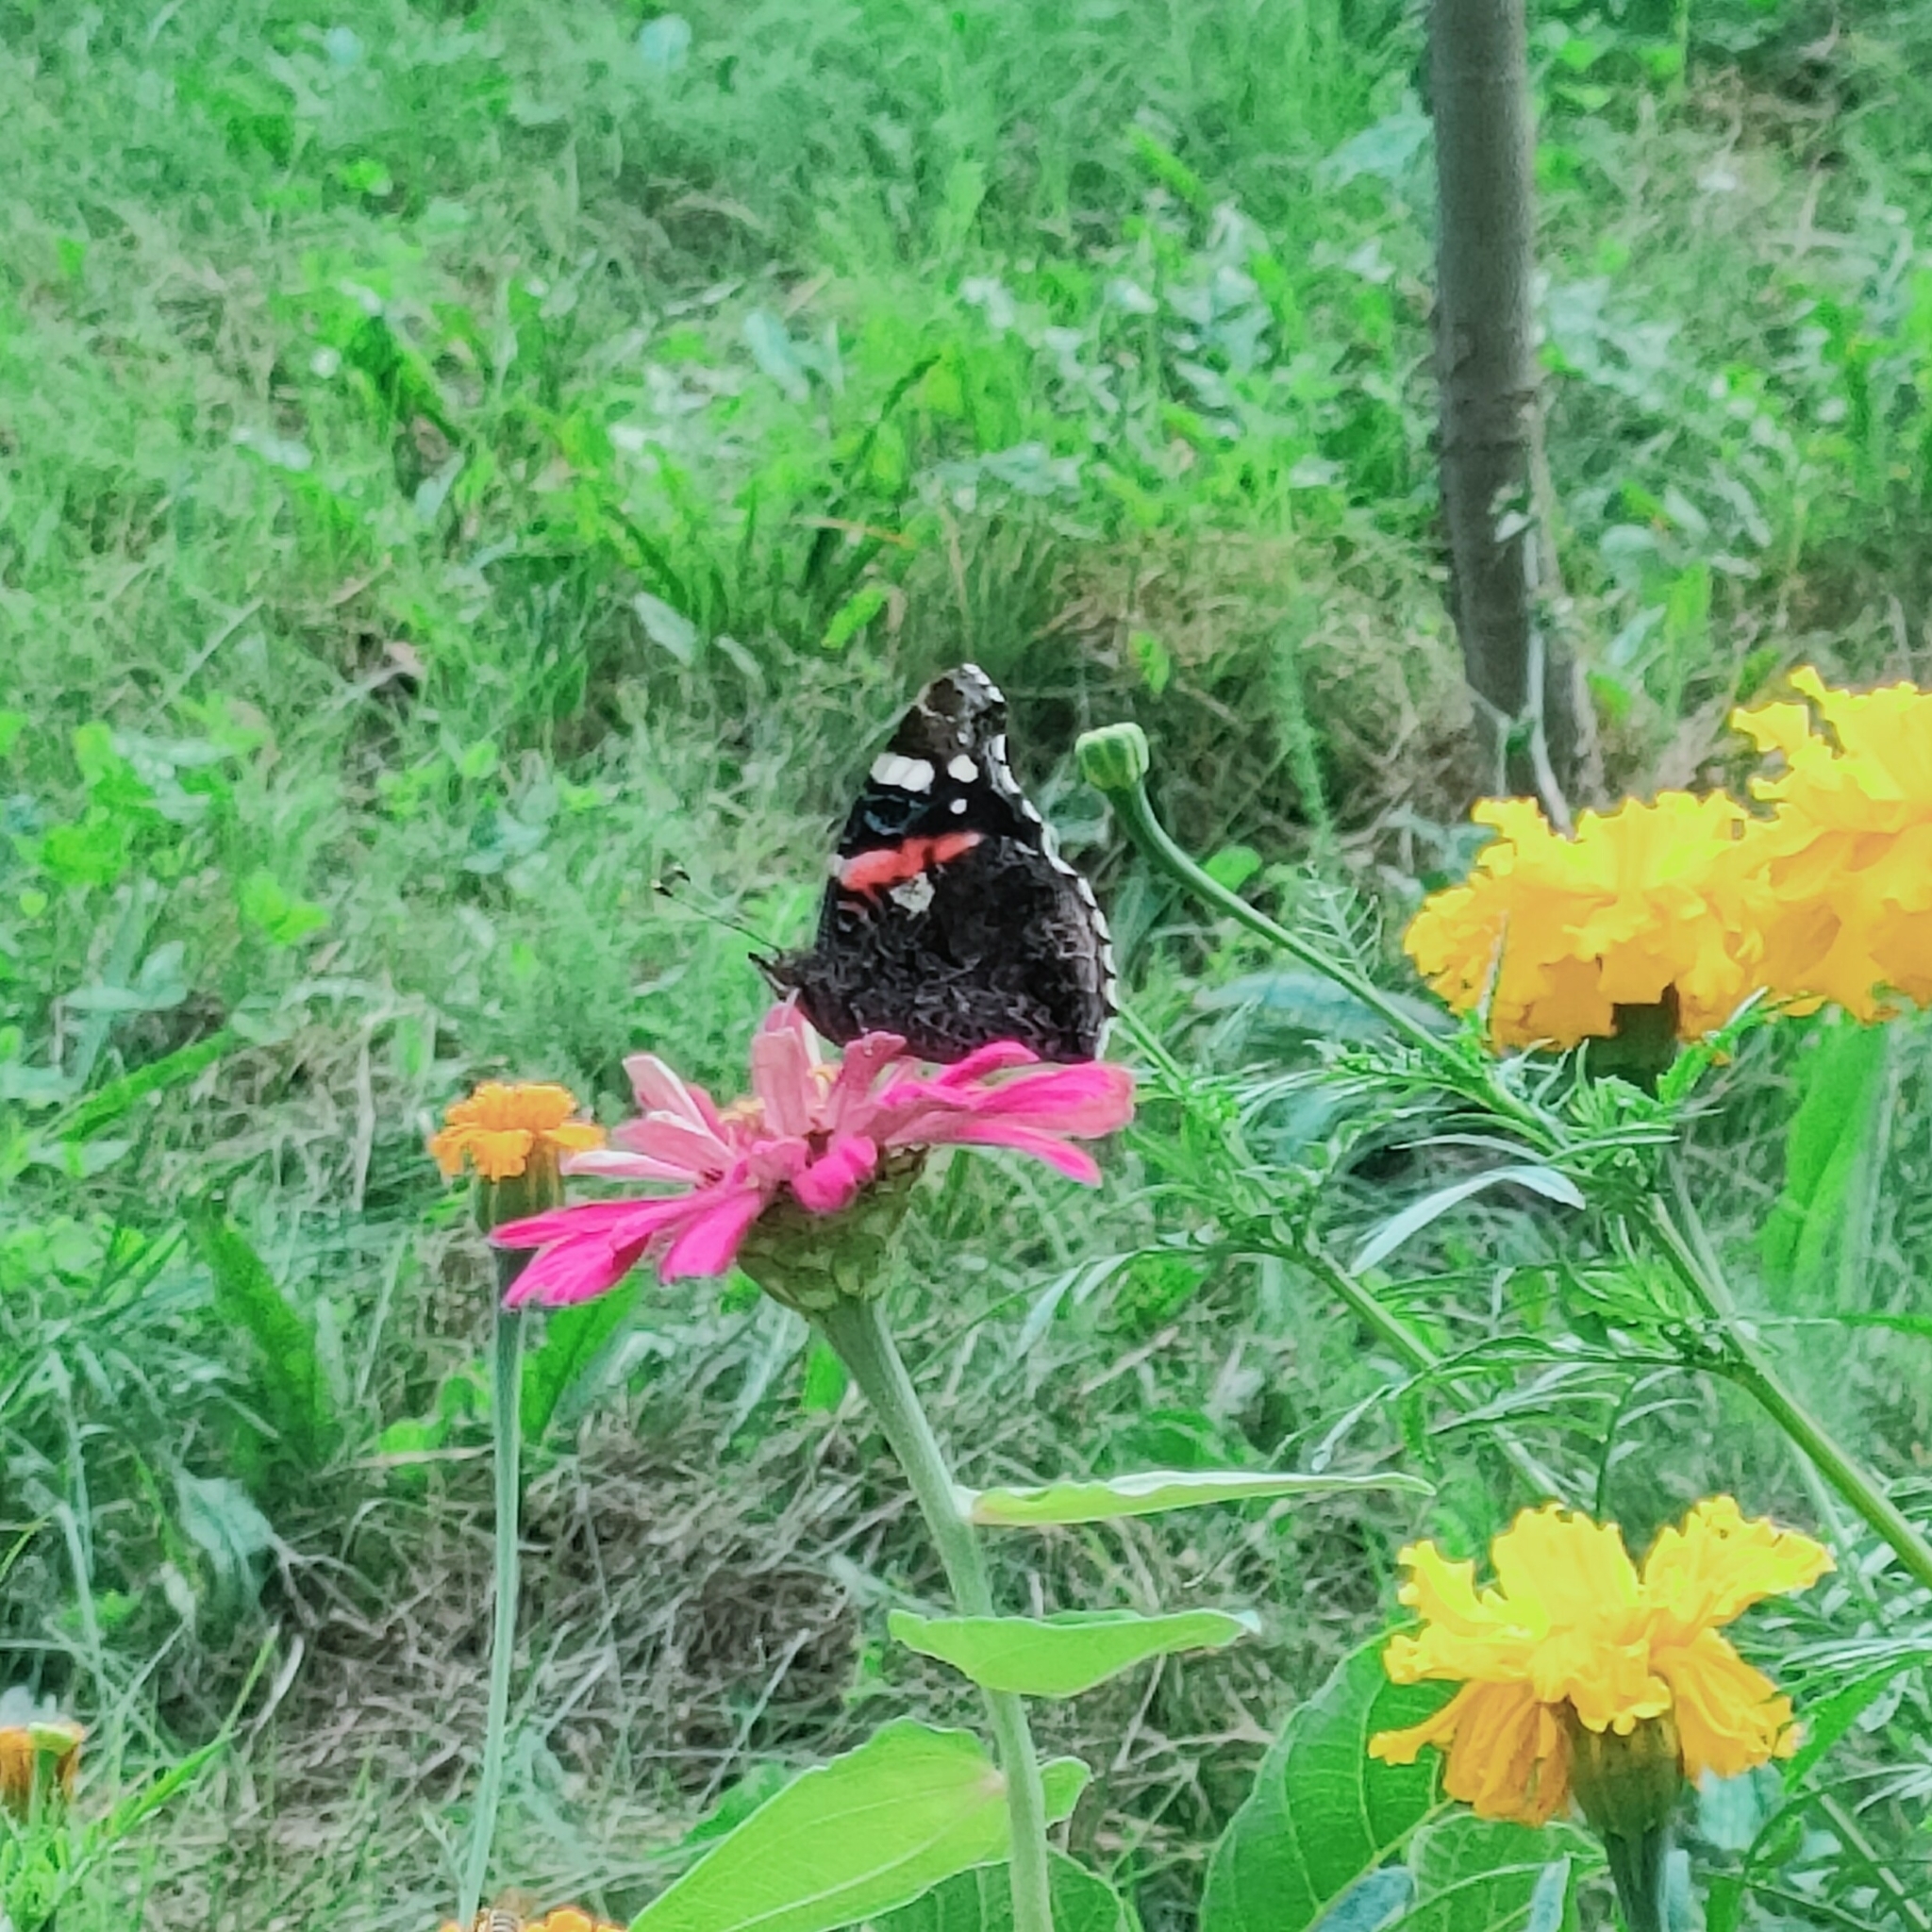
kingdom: Animalia
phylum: Arthropoda
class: Insecta
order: Lepidoptera
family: Nymphalidae
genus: Vanessa
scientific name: Vanessa atalanta
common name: Red admiral
